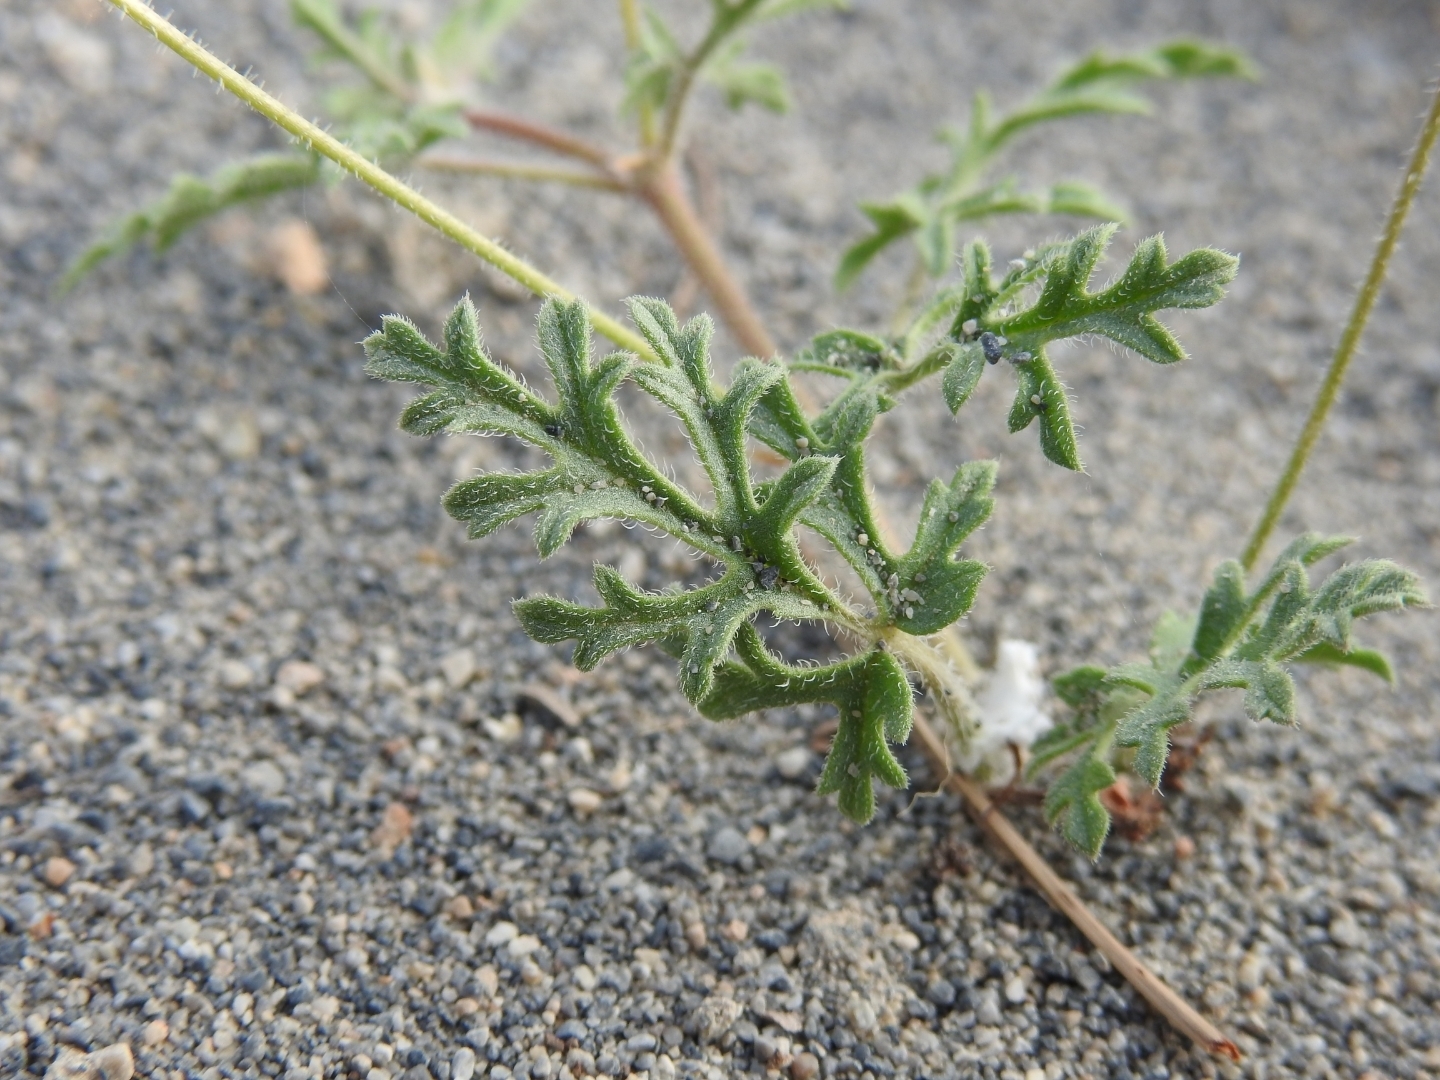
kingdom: Plantae
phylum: Tracheophyta
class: Magnoliopsida
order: Geraniales
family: Geraniaceae
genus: Erodium
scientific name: Erodium botrys
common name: Mediterranean stork's-bill
